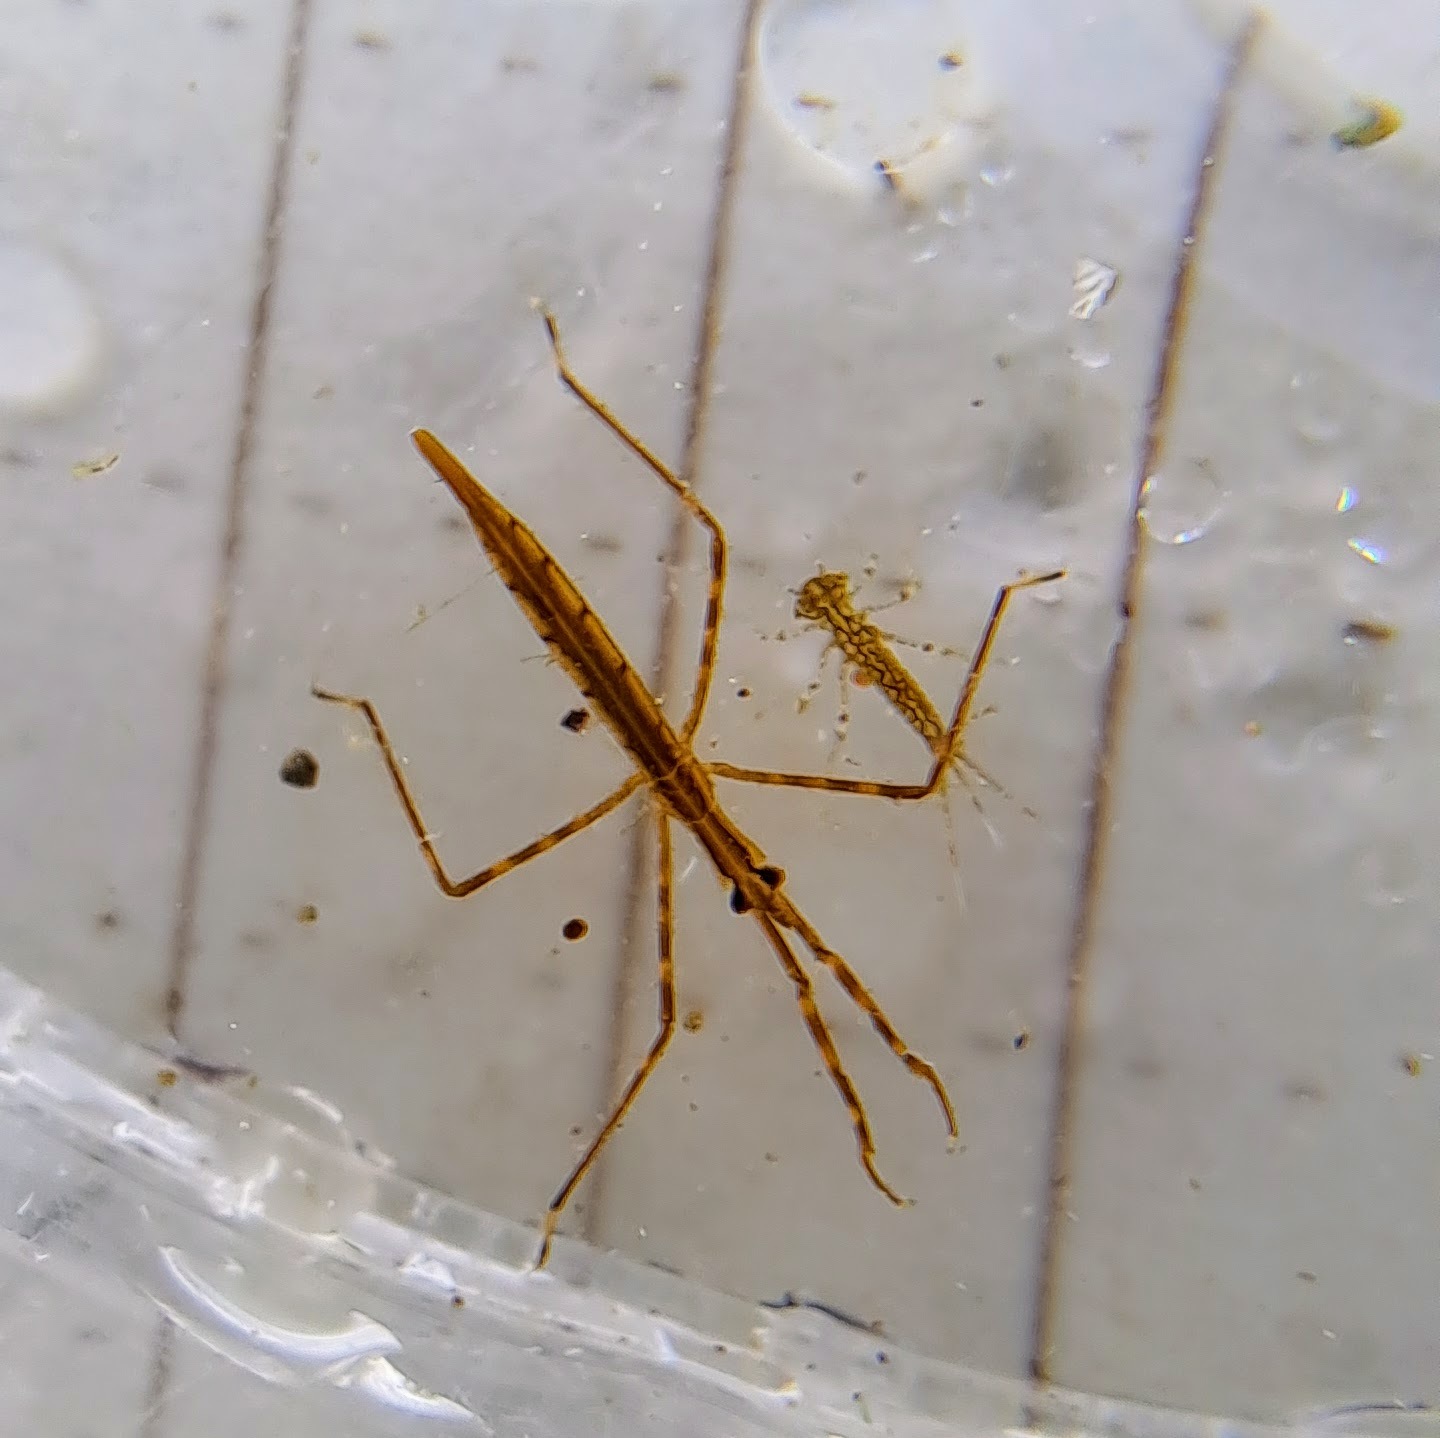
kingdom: Animalia
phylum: Arthropoda
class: Insecta
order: Hemiptera
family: Nepidae
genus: Ranatra
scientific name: Ranatra
